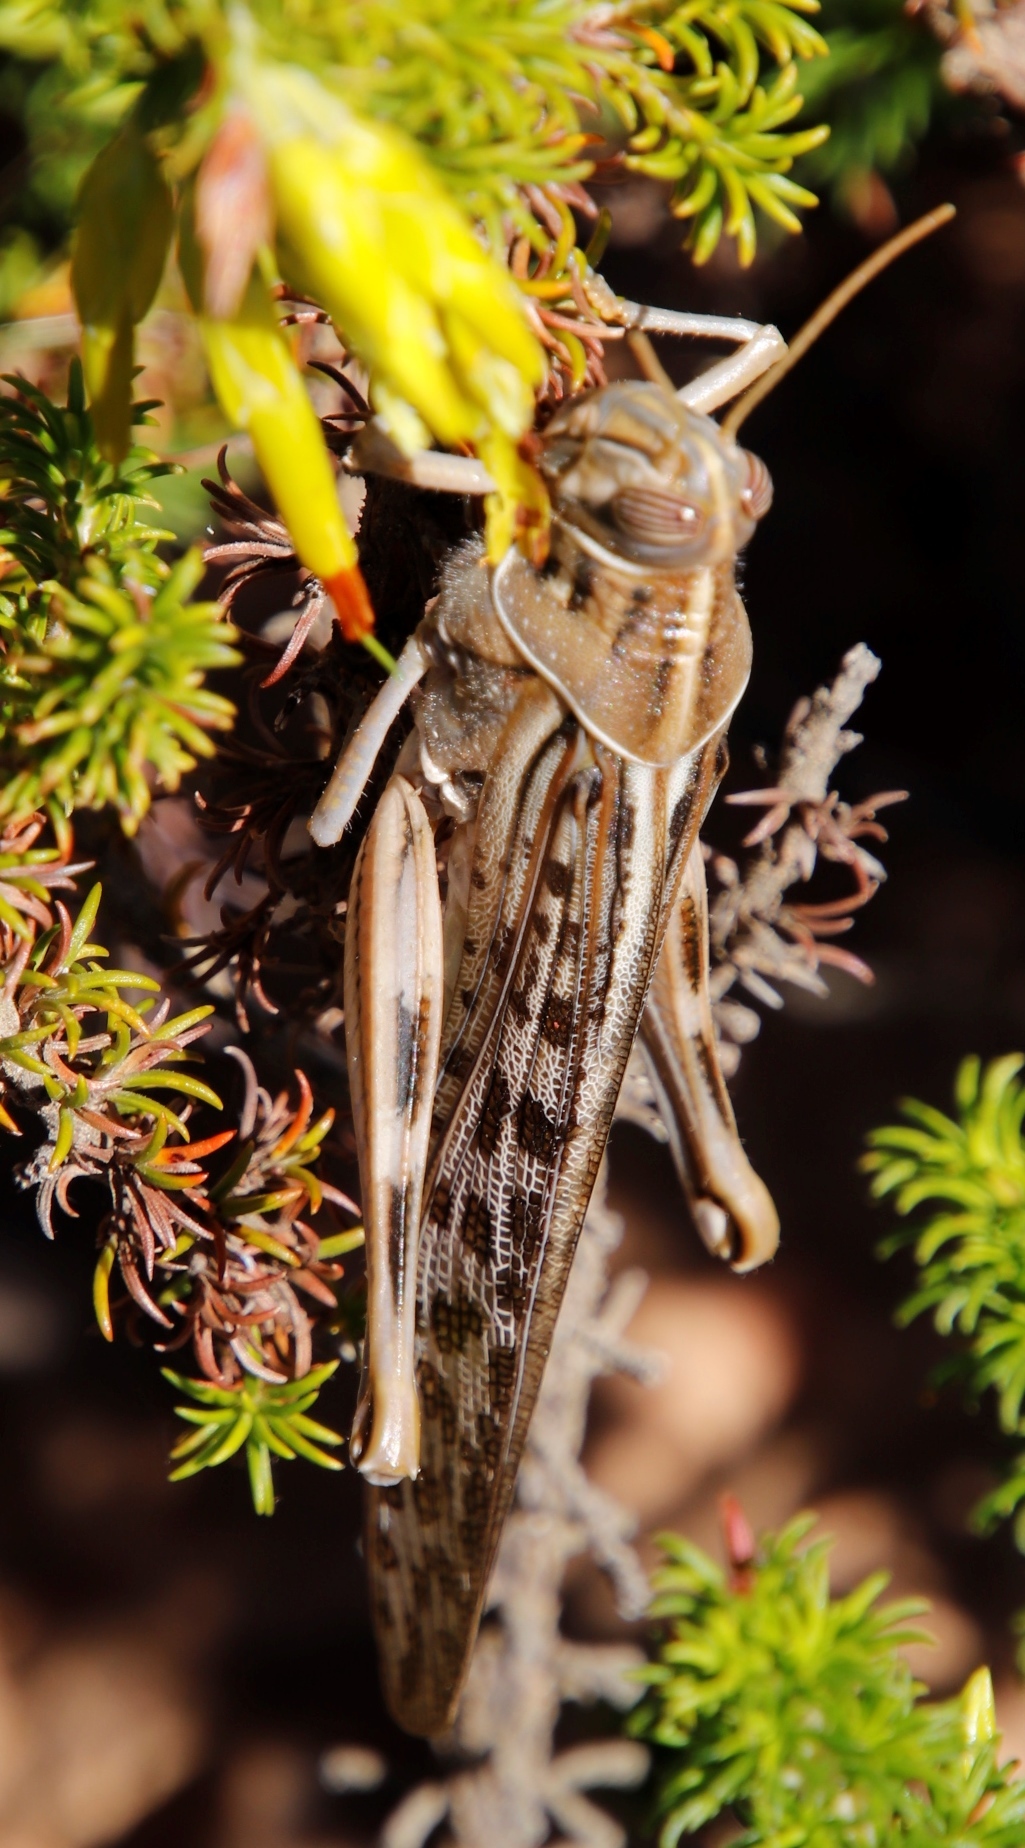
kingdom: Animalia
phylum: Arthropoda
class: Insecta
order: Orthoptera
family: Acrididae
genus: Schistocerca
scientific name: Schistocerca gregaria
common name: Desert locust
